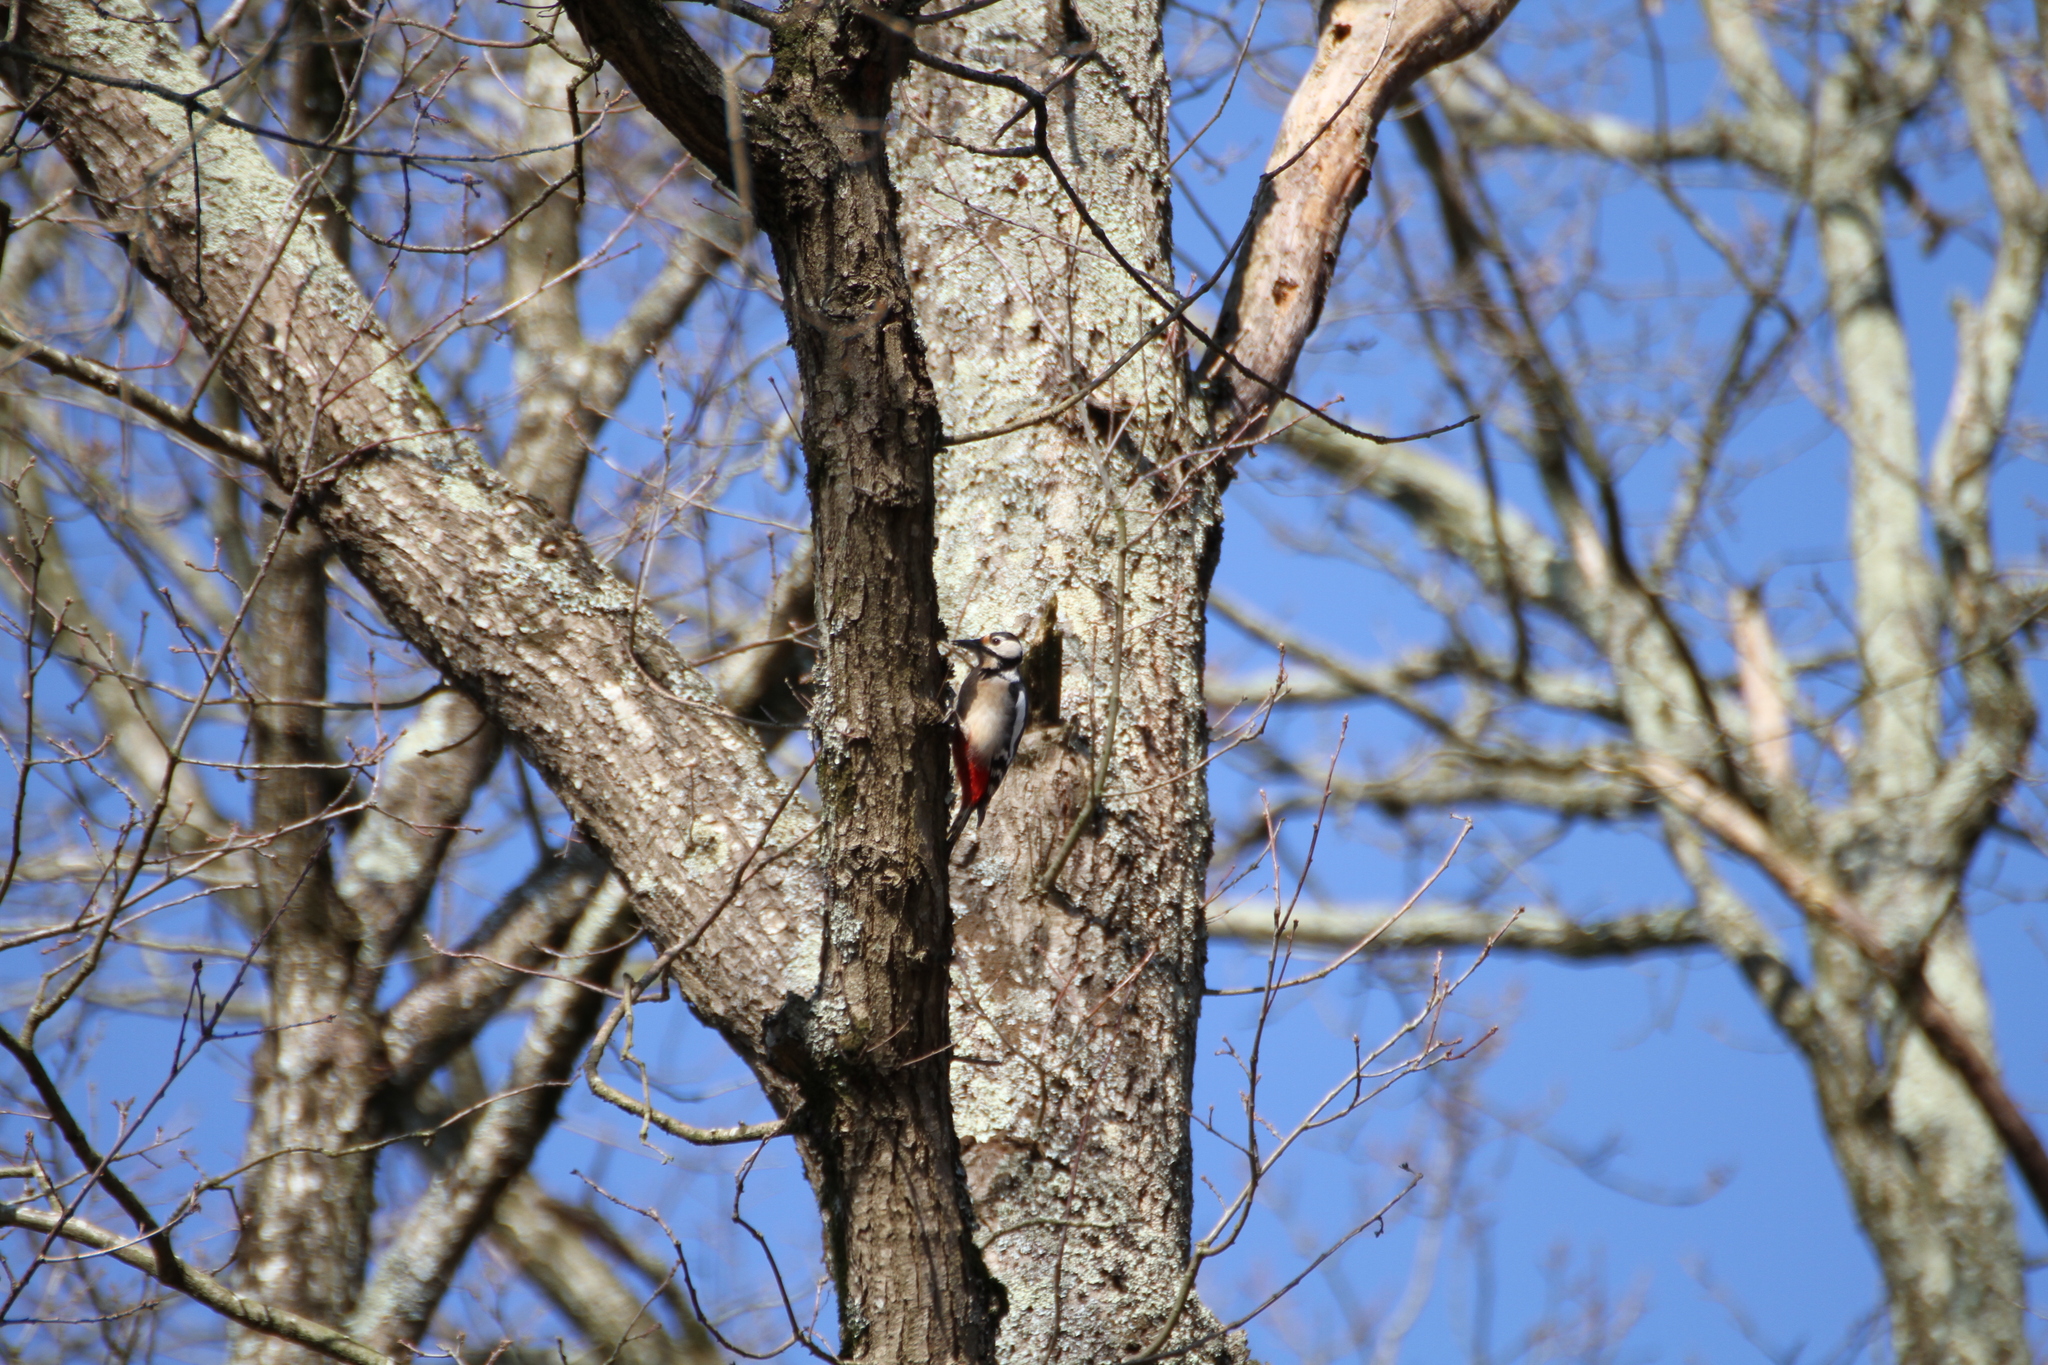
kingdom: Animalia
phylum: Chordata
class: Aves
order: Piciformes
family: Picidae
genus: Dendrocopos
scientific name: Dendrocopos major
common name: Great spotted woodpecker
